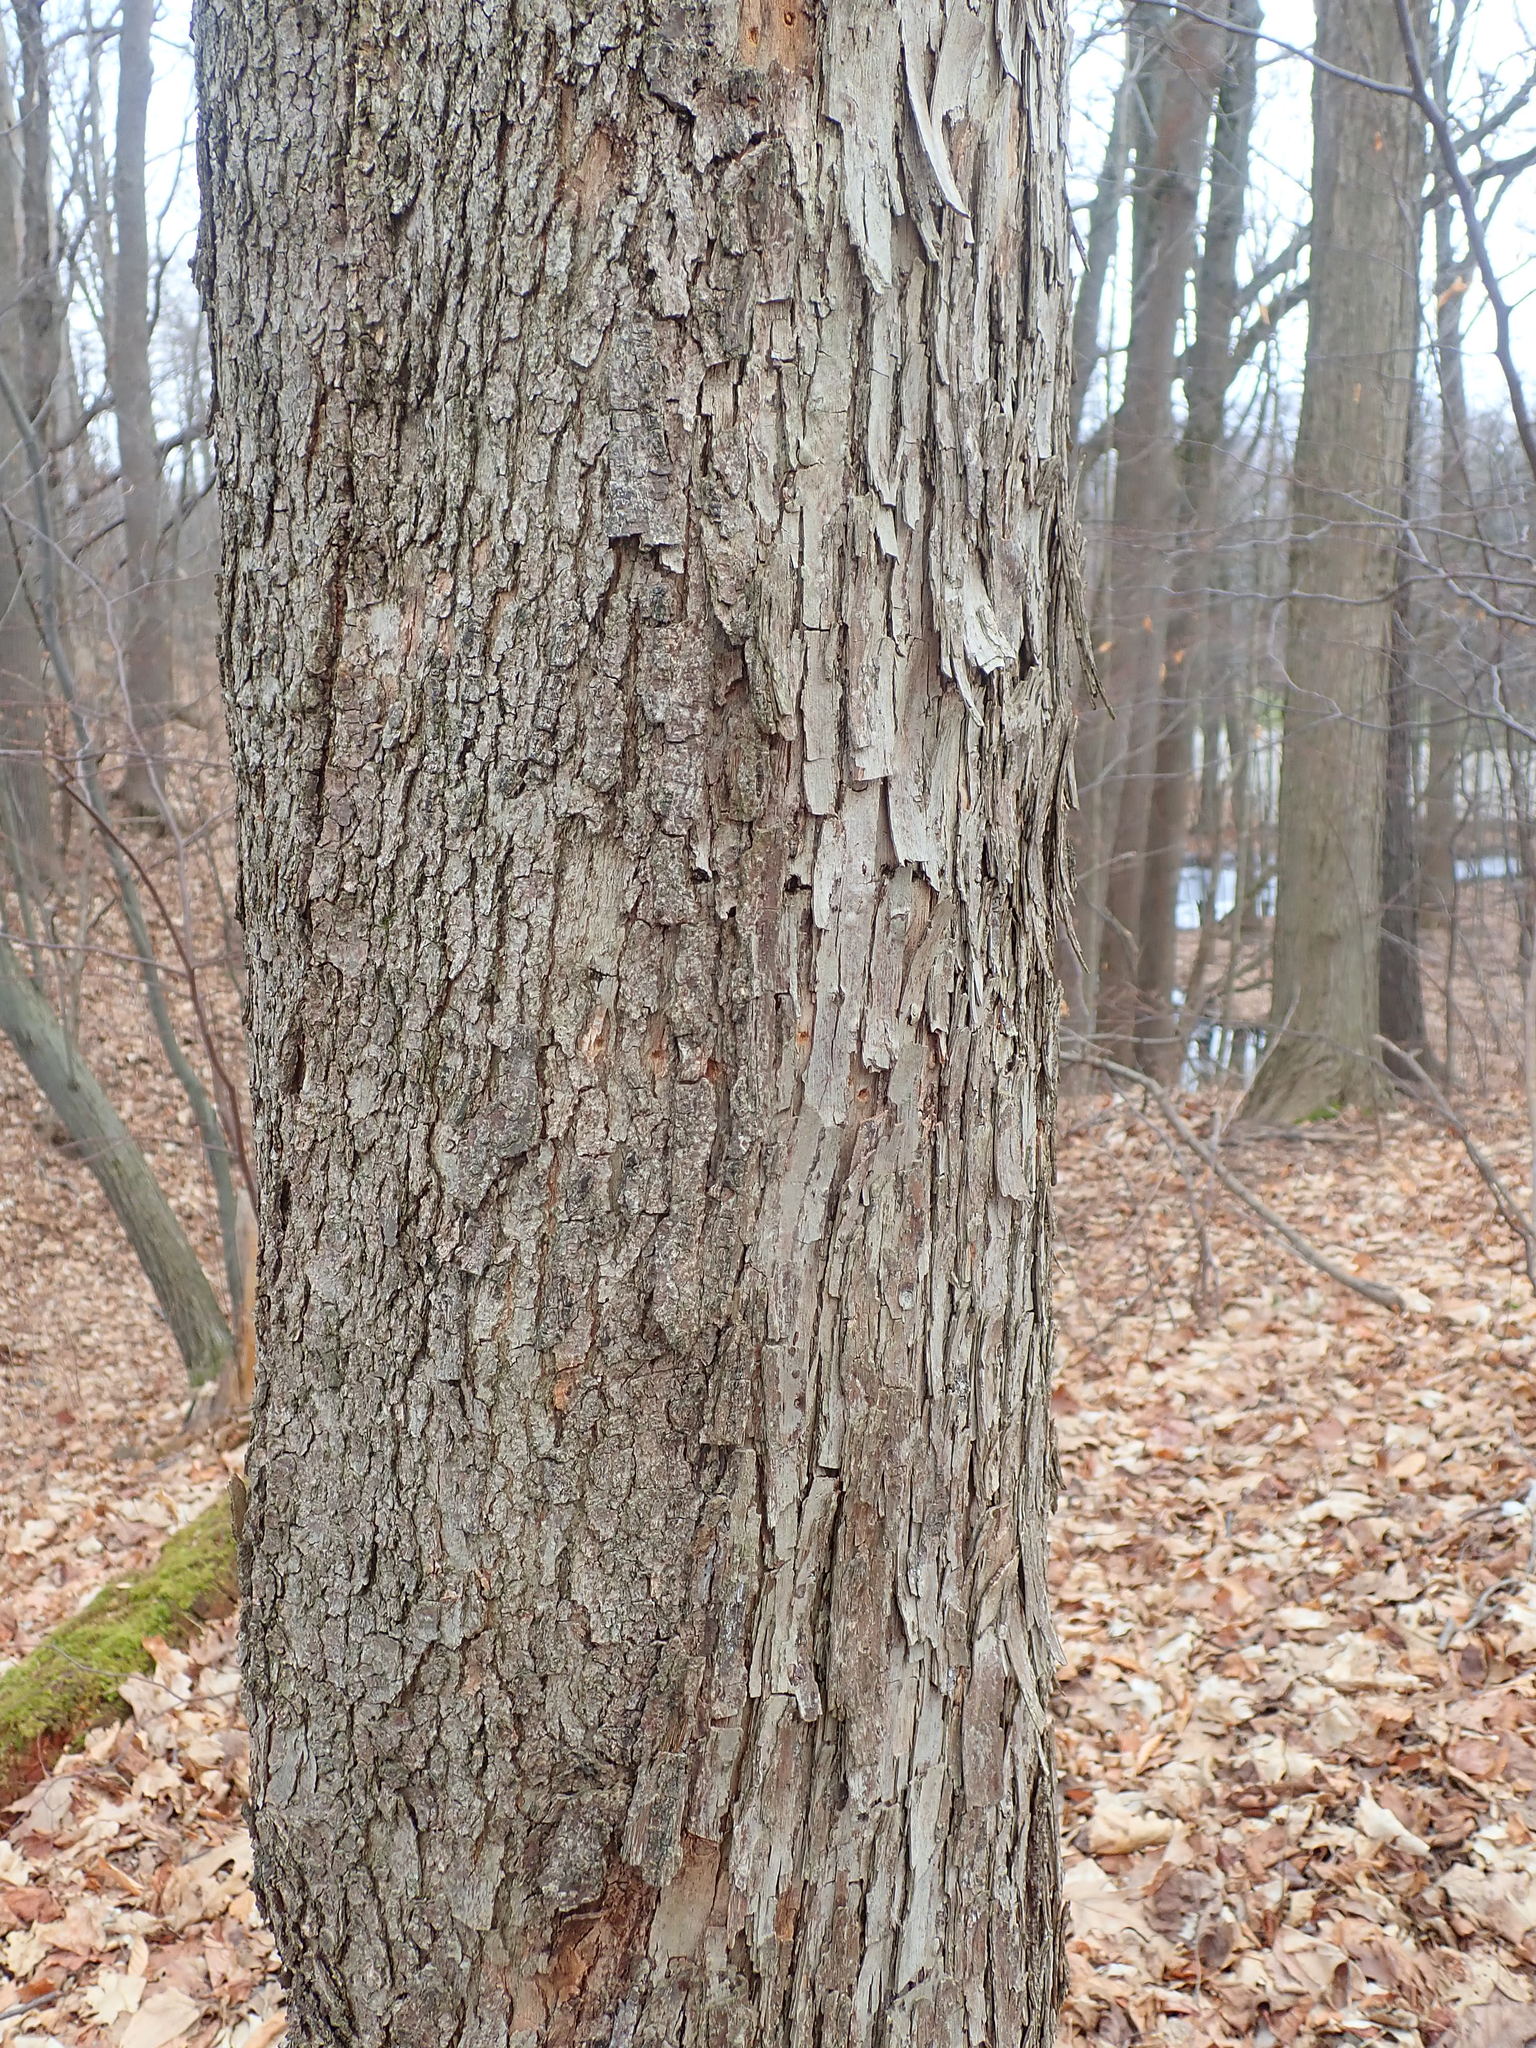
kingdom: Plantae
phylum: Tracheophyta
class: Magnoliopsida
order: Fagales
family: Betulaceae
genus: Ostrya
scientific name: Ostrya virginiana
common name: Ironwood
